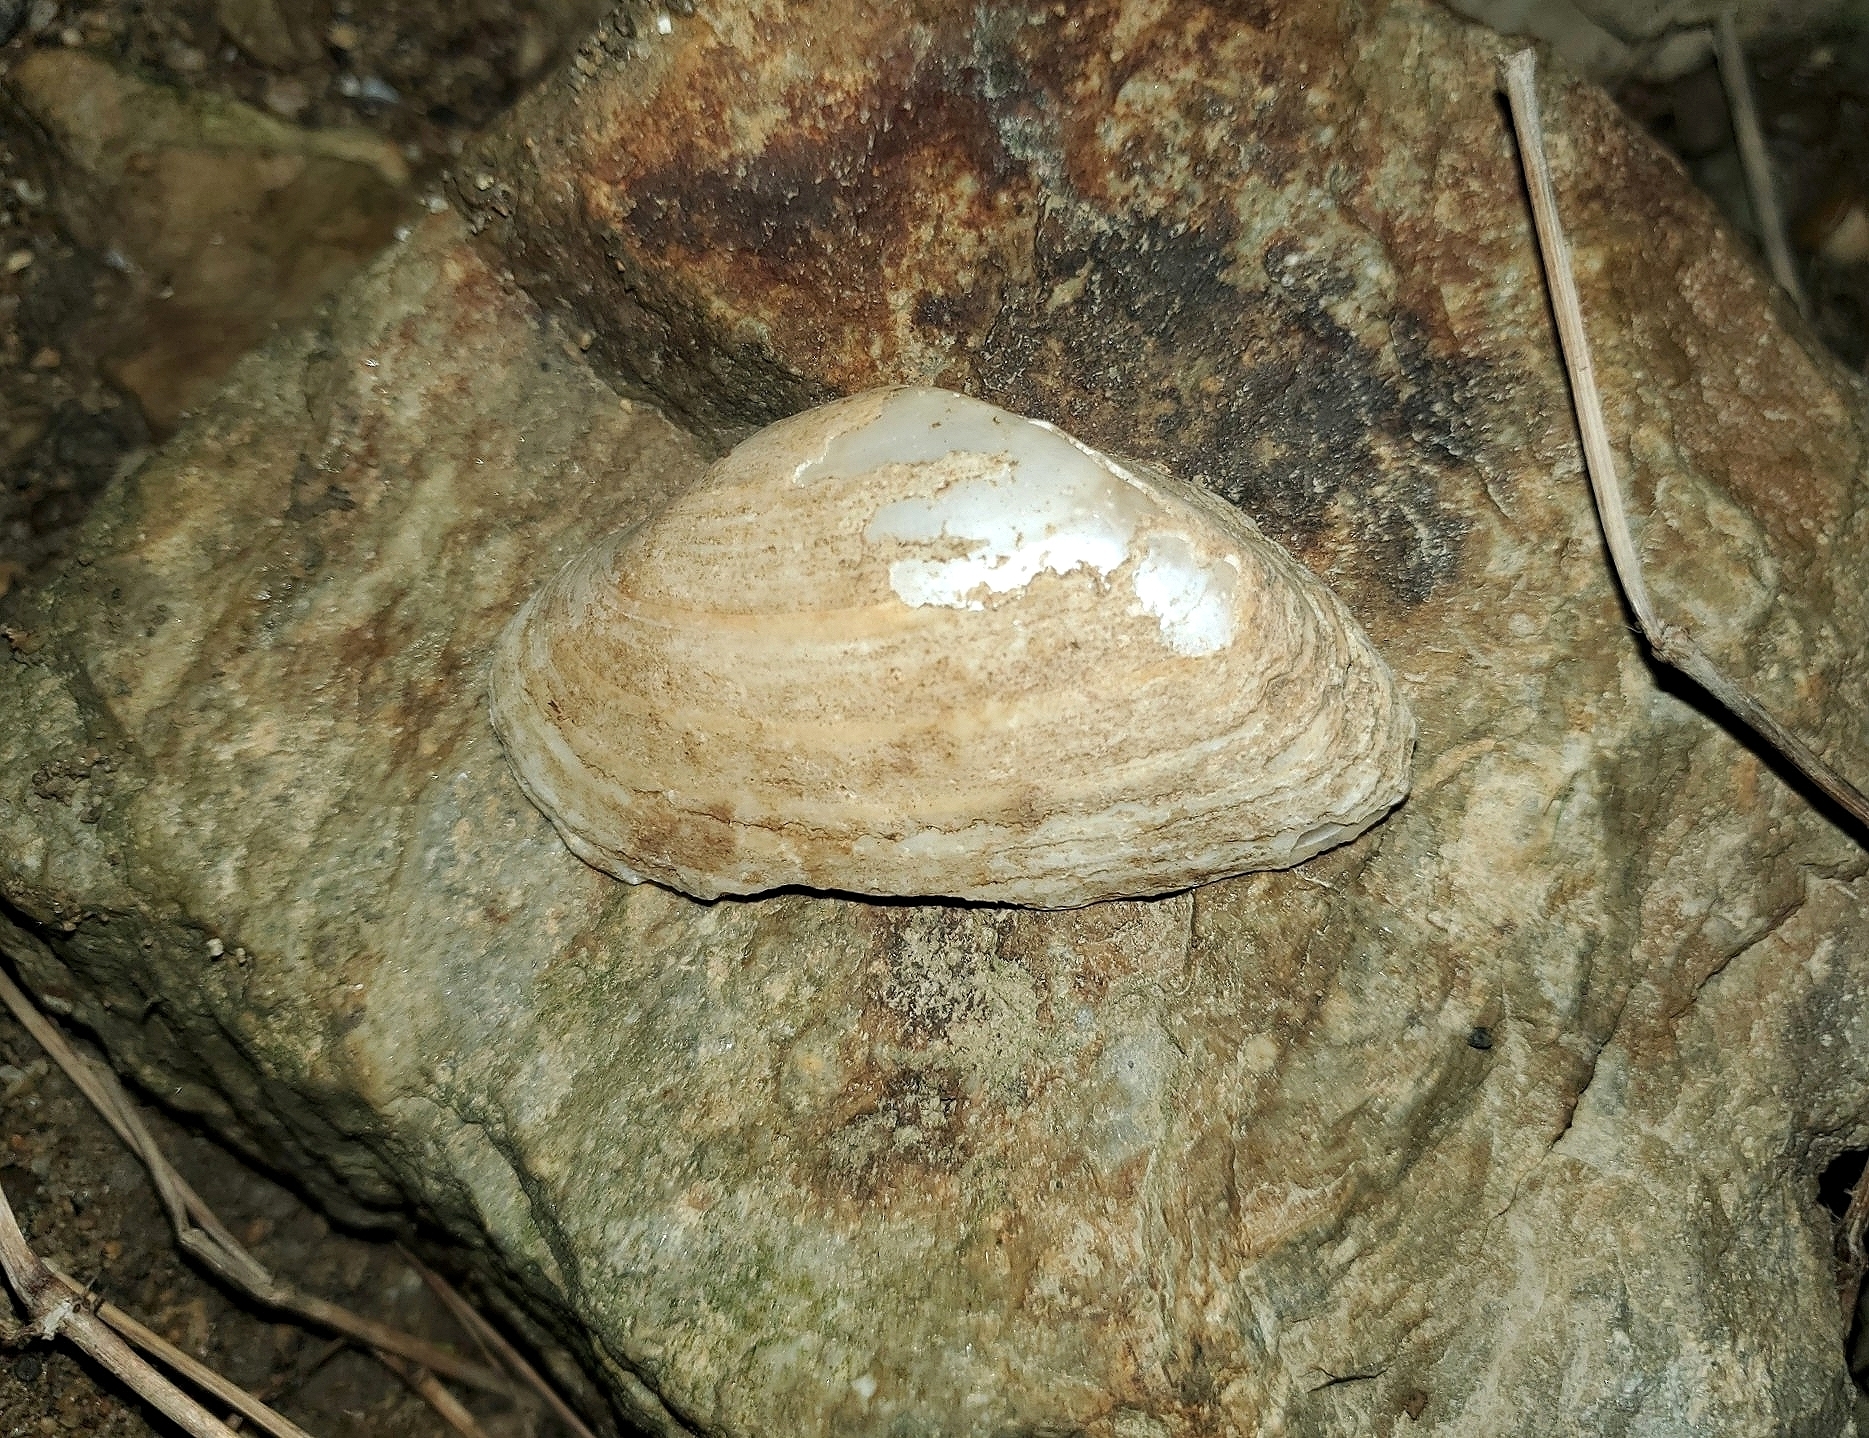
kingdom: Animalia
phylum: Mollusca
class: Bivalvia
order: Unionida
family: Unionidae
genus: Alasmidonta
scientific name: Alasmidonta marginata
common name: Elktoe
